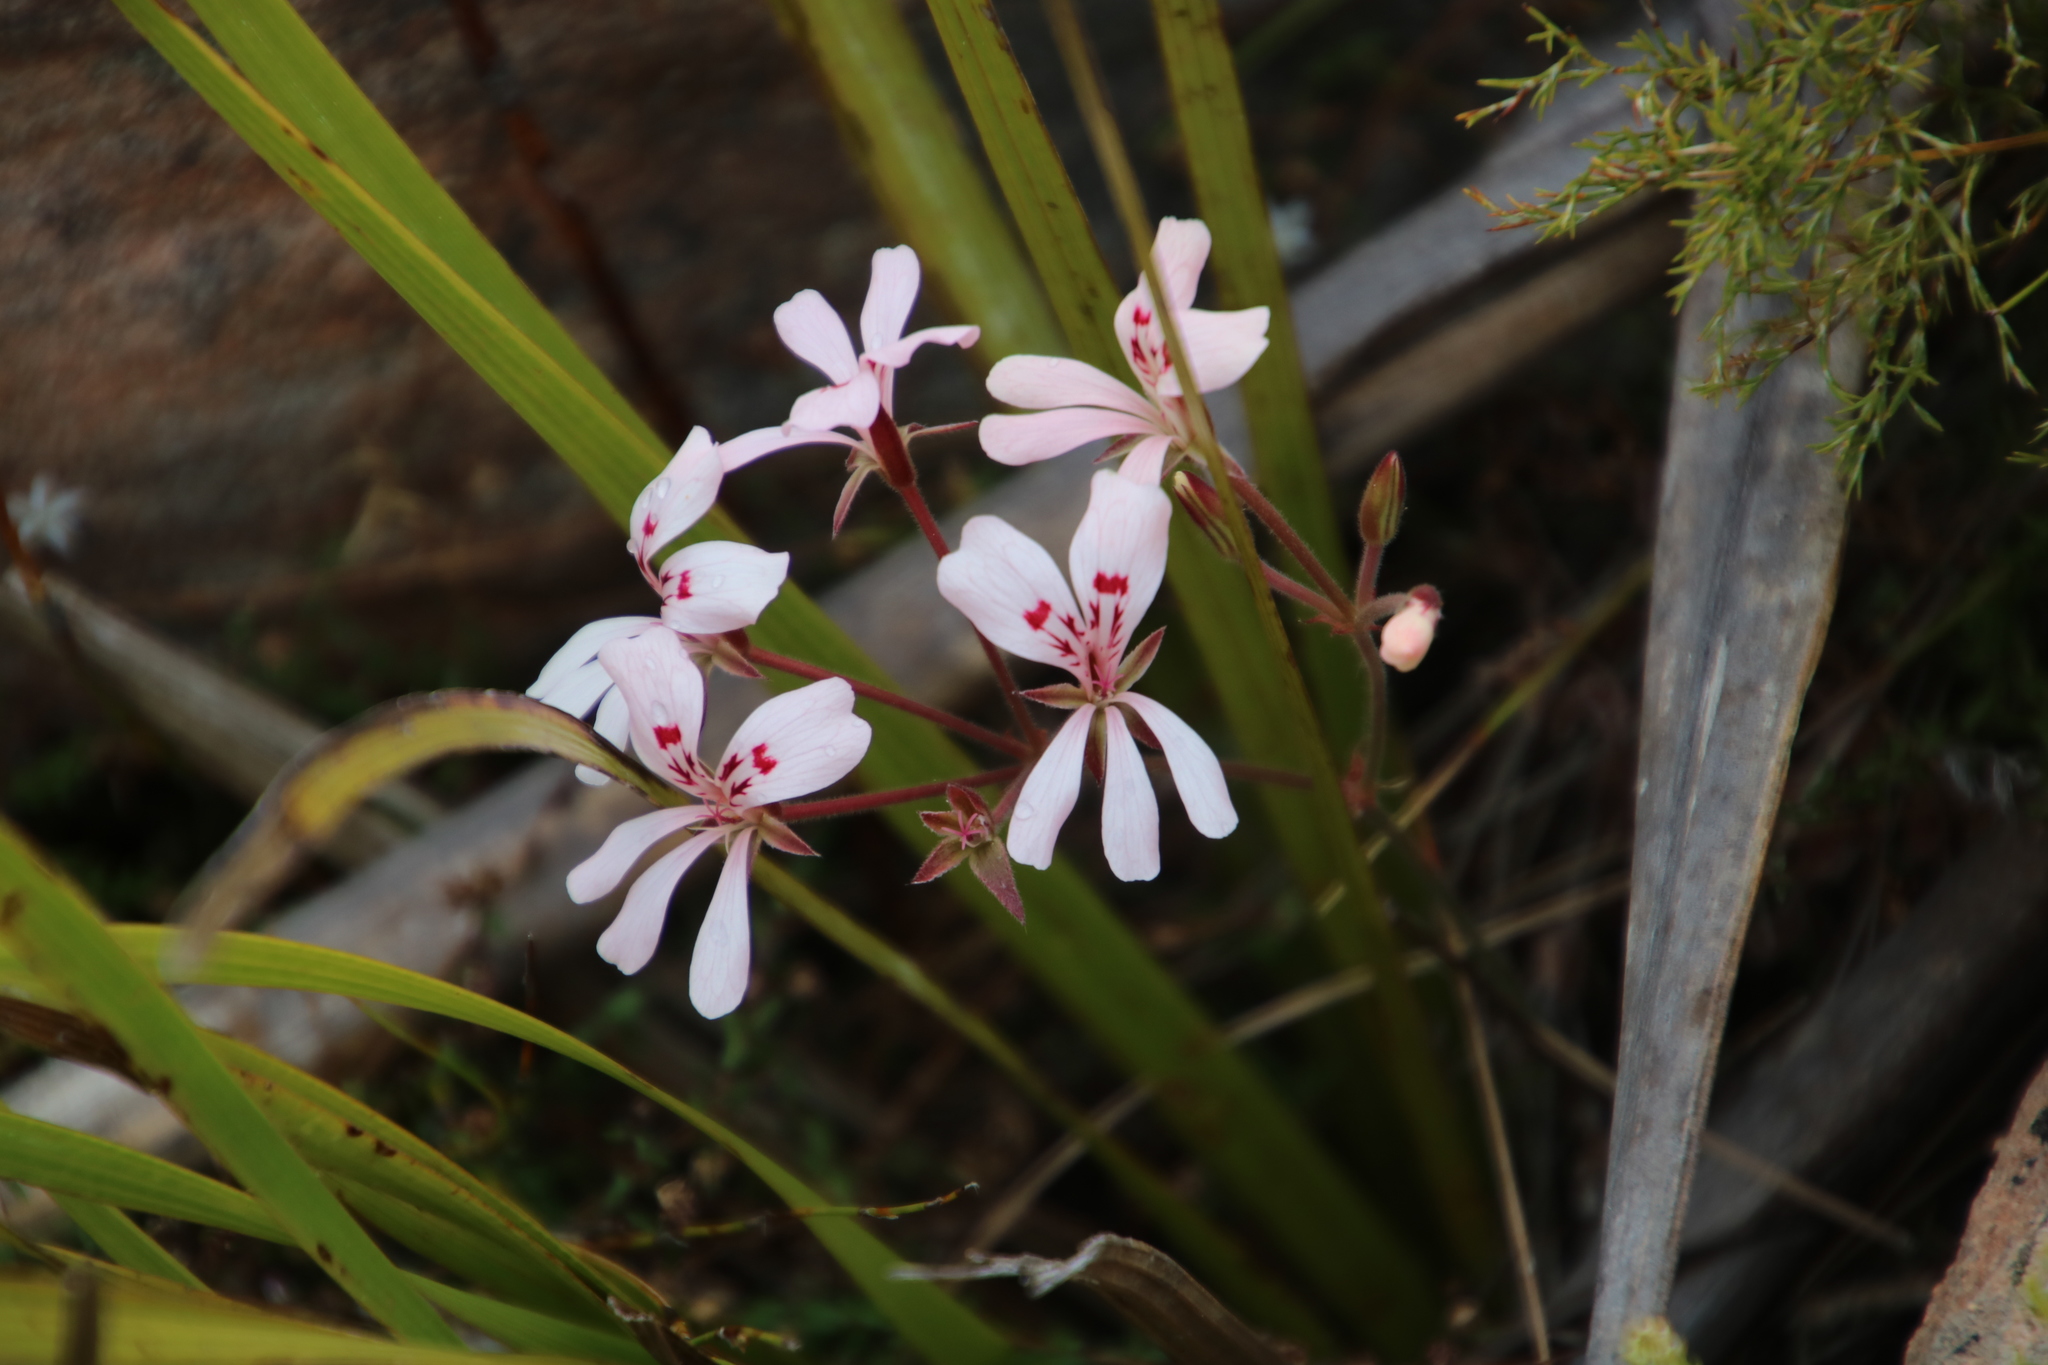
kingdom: Plantae
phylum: Tracheophyta
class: Magnoliopsida
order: Geraniales
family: Geraniaceae
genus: Pelargonium
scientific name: Pelargonium pinnatum
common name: Pinnated pelargonium
